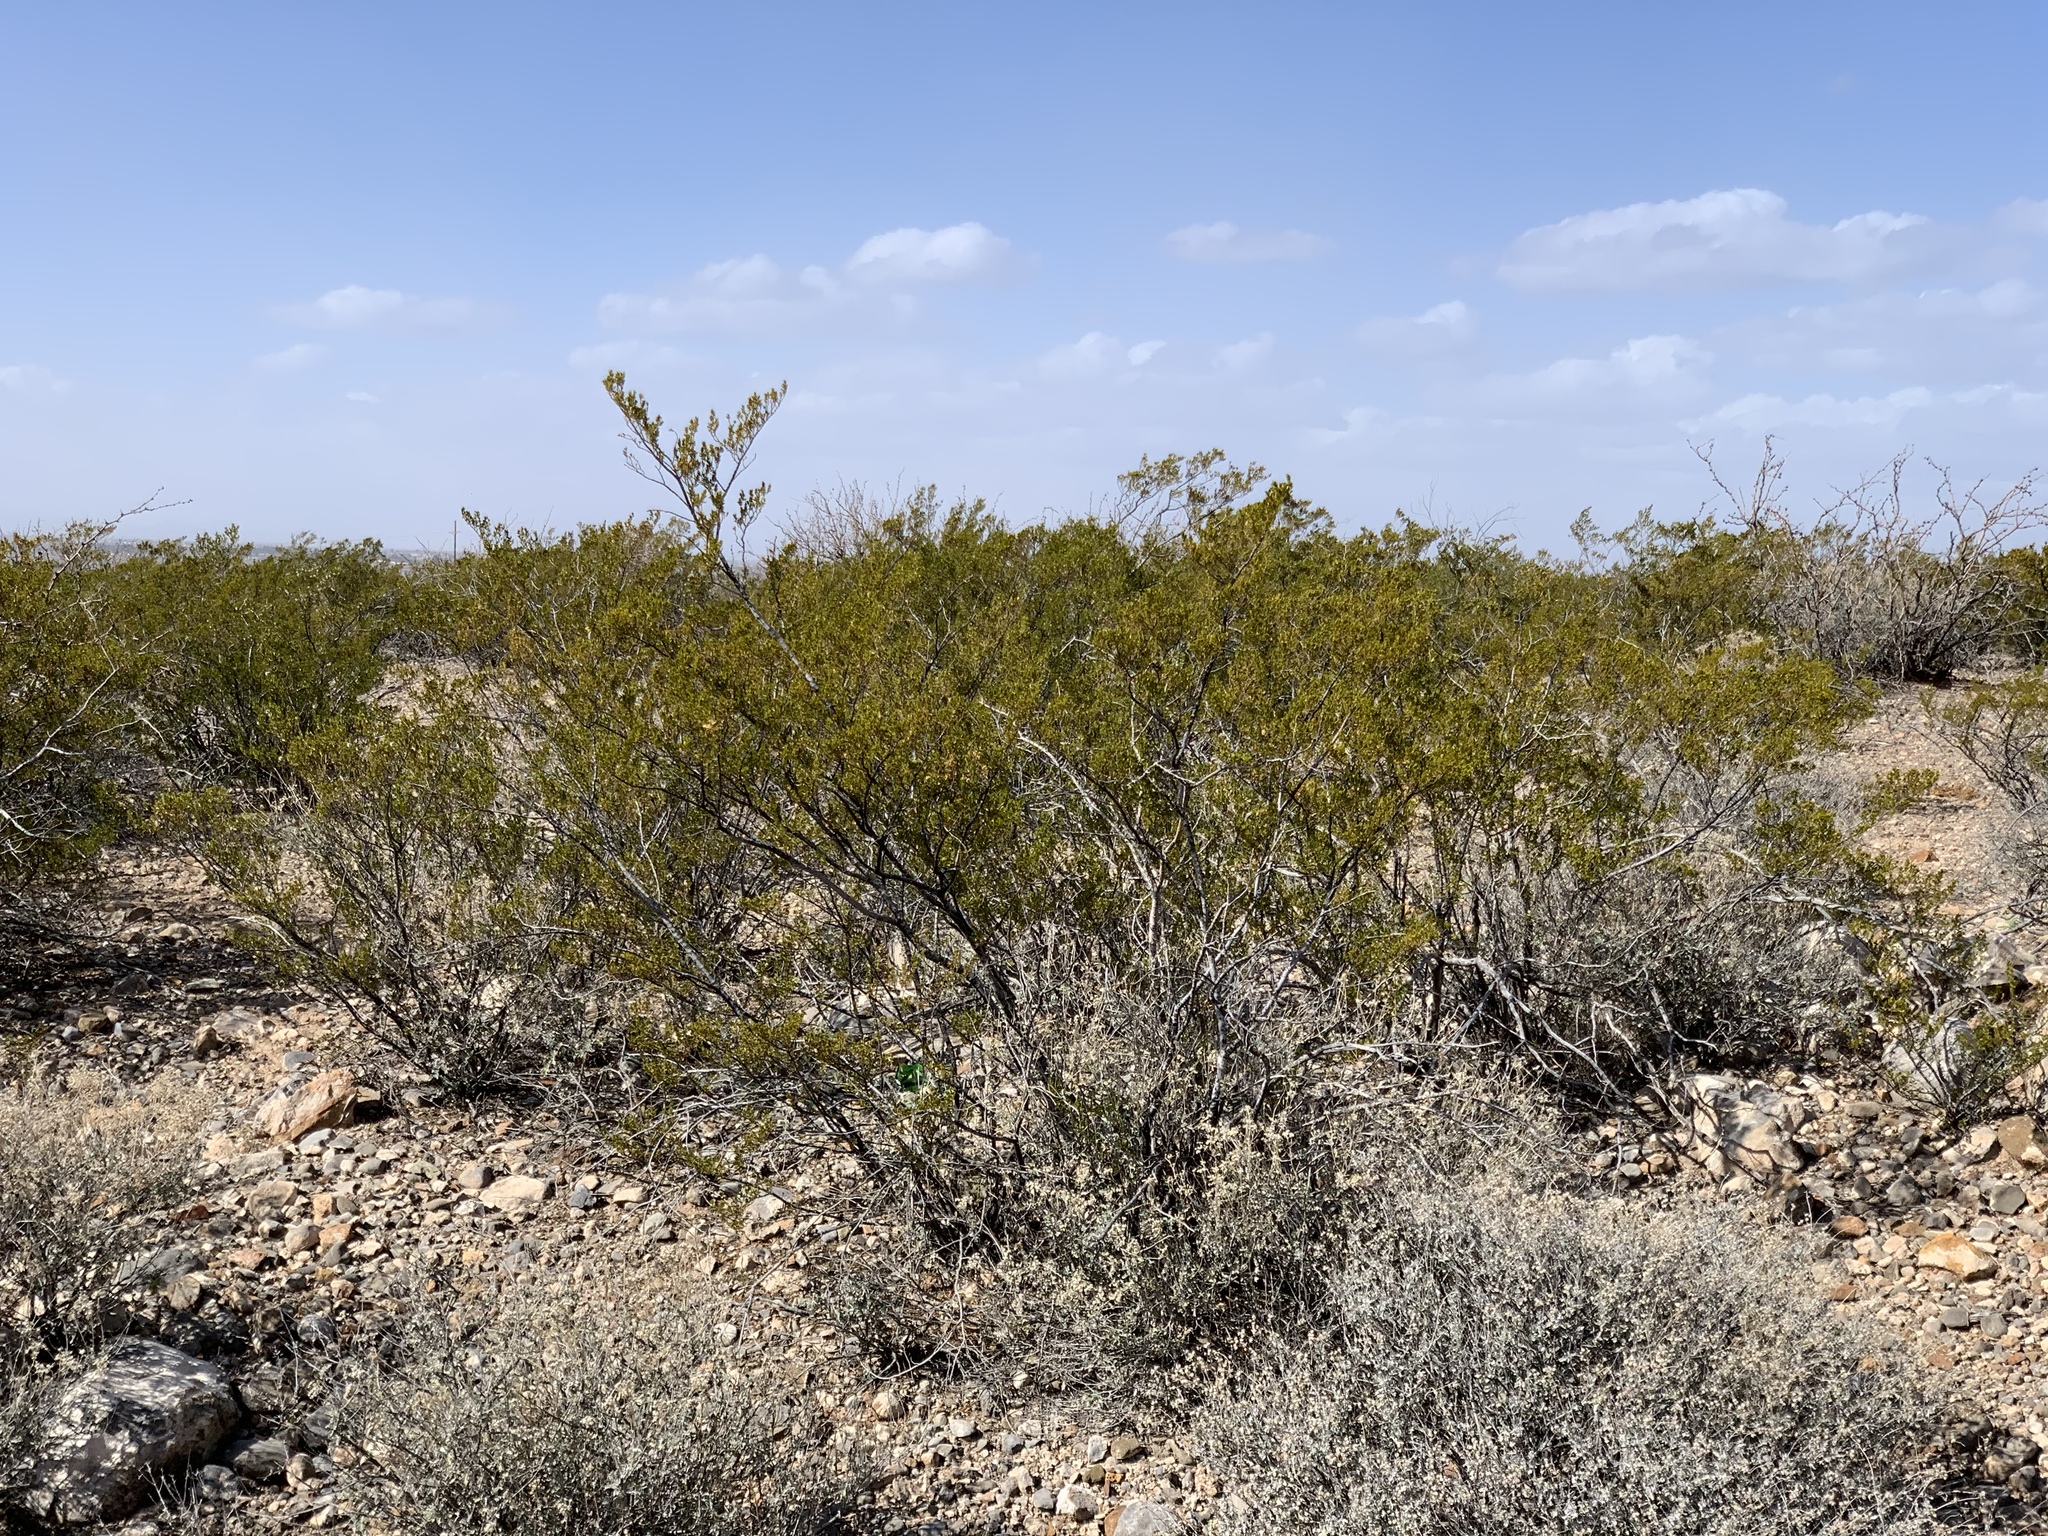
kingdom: Plantae
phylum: Tracheophyta
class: Magnoliopsida
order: Zygophyllales
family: Zygophyllaceae
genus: Larrea
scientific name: Larrea tridentata
